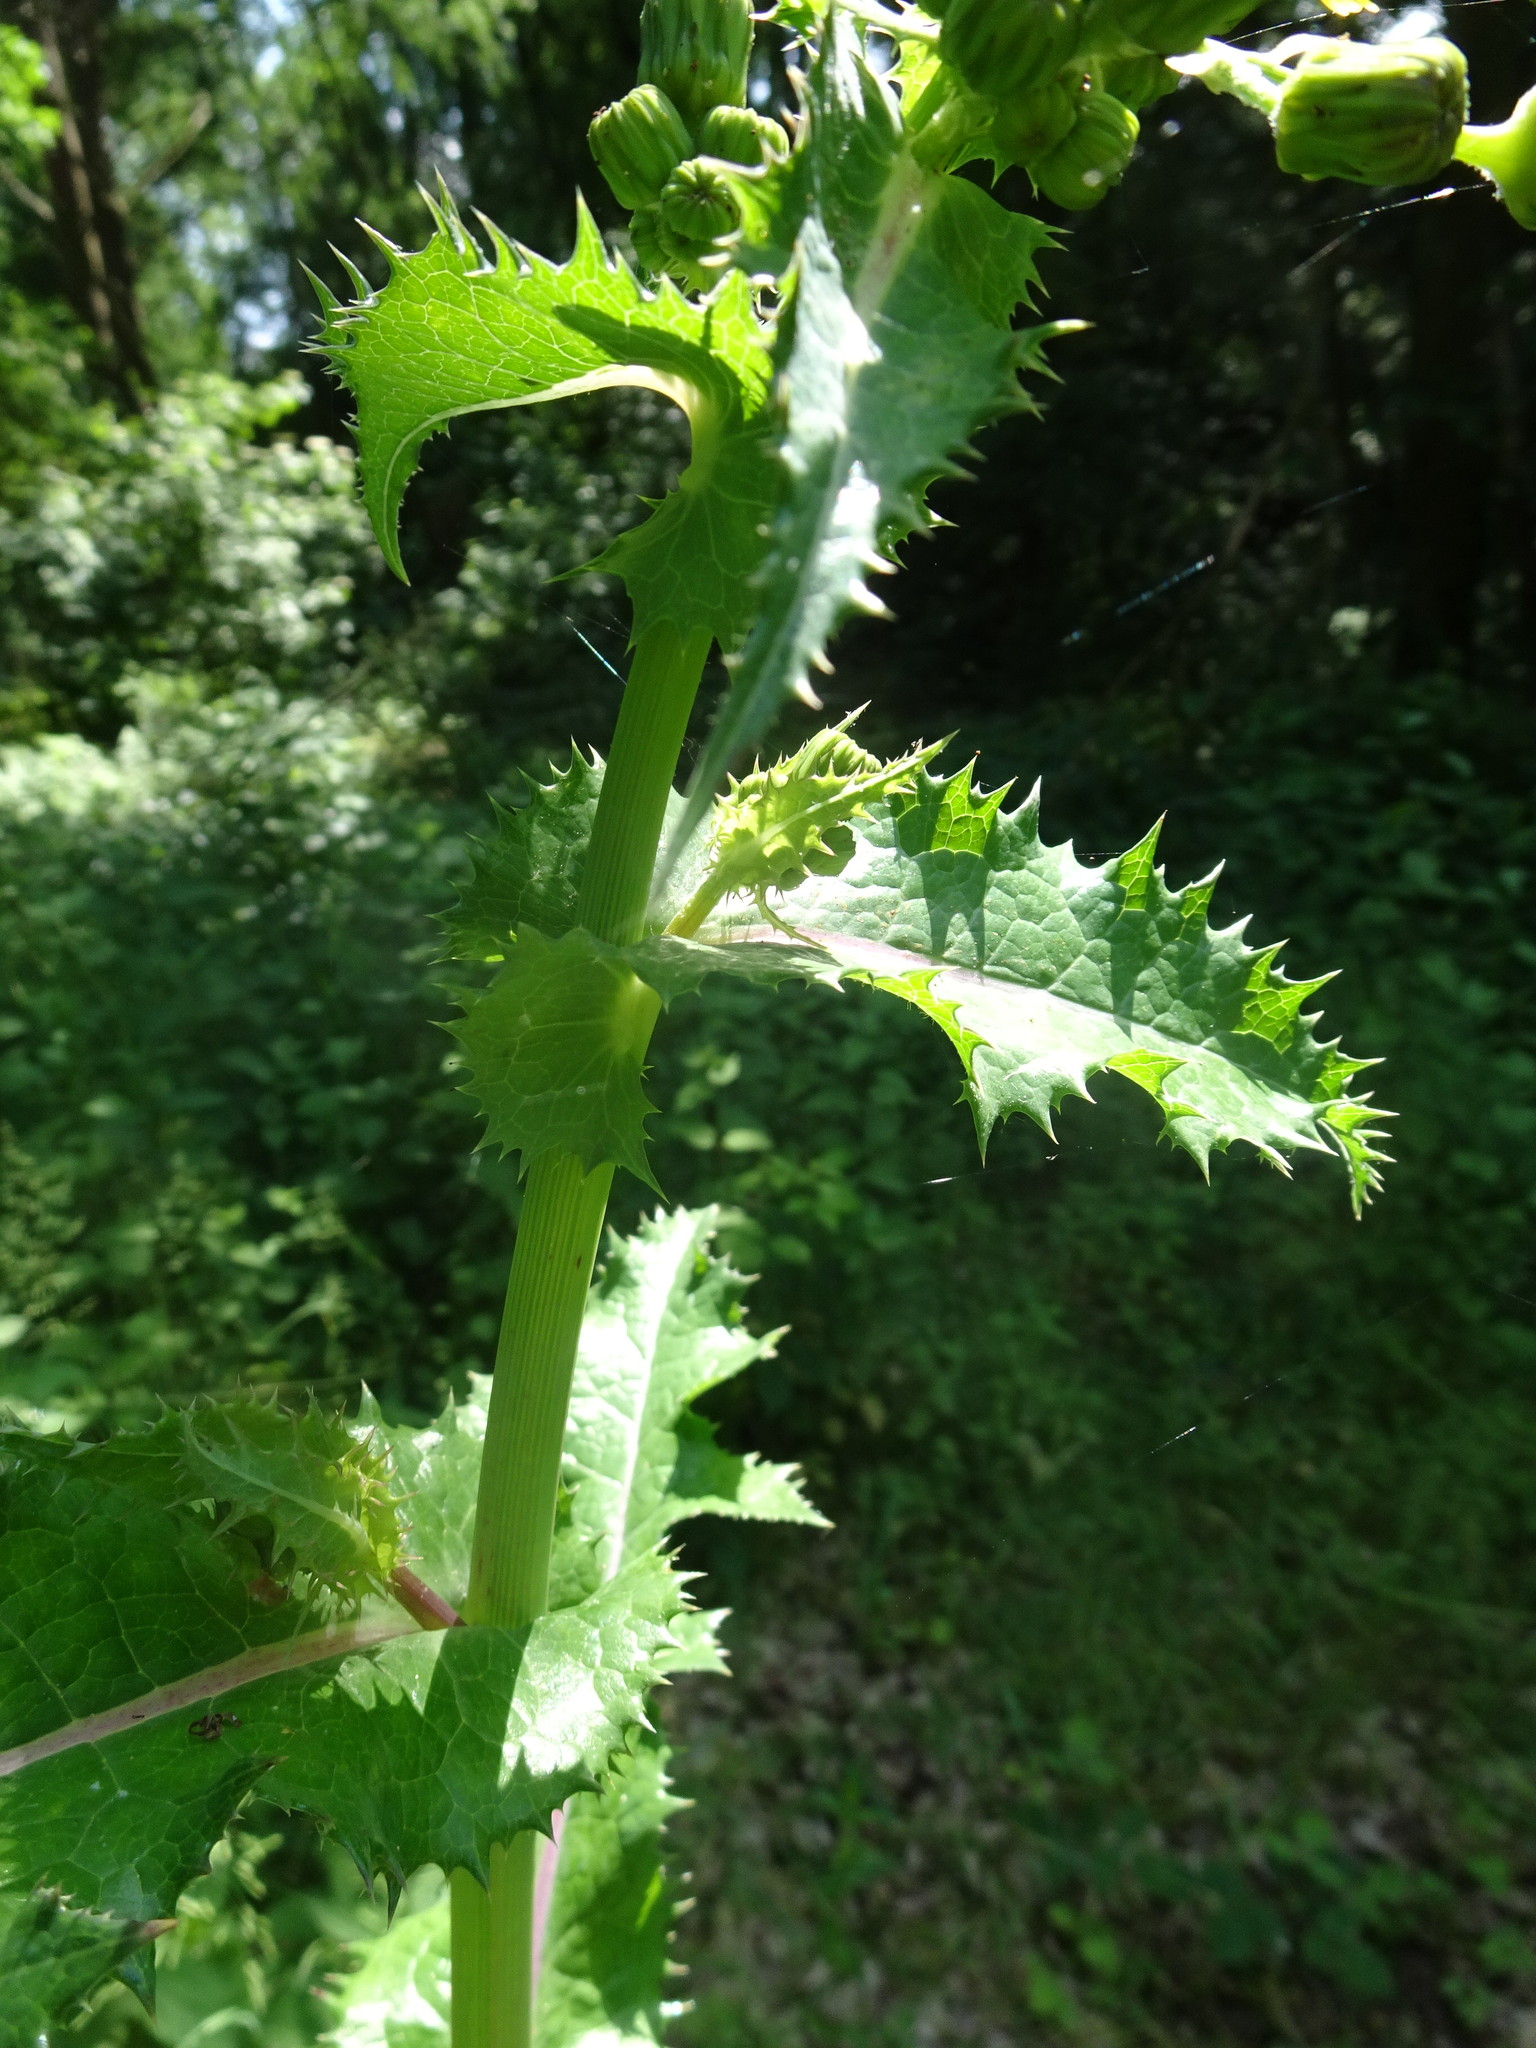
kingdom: Plantae
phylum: Tracheophyta
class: Magnoliopsida
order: Asterales
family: Asteraceae
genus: Sonchus
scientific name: Sonchus asper
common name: Prickly sow-thistle
